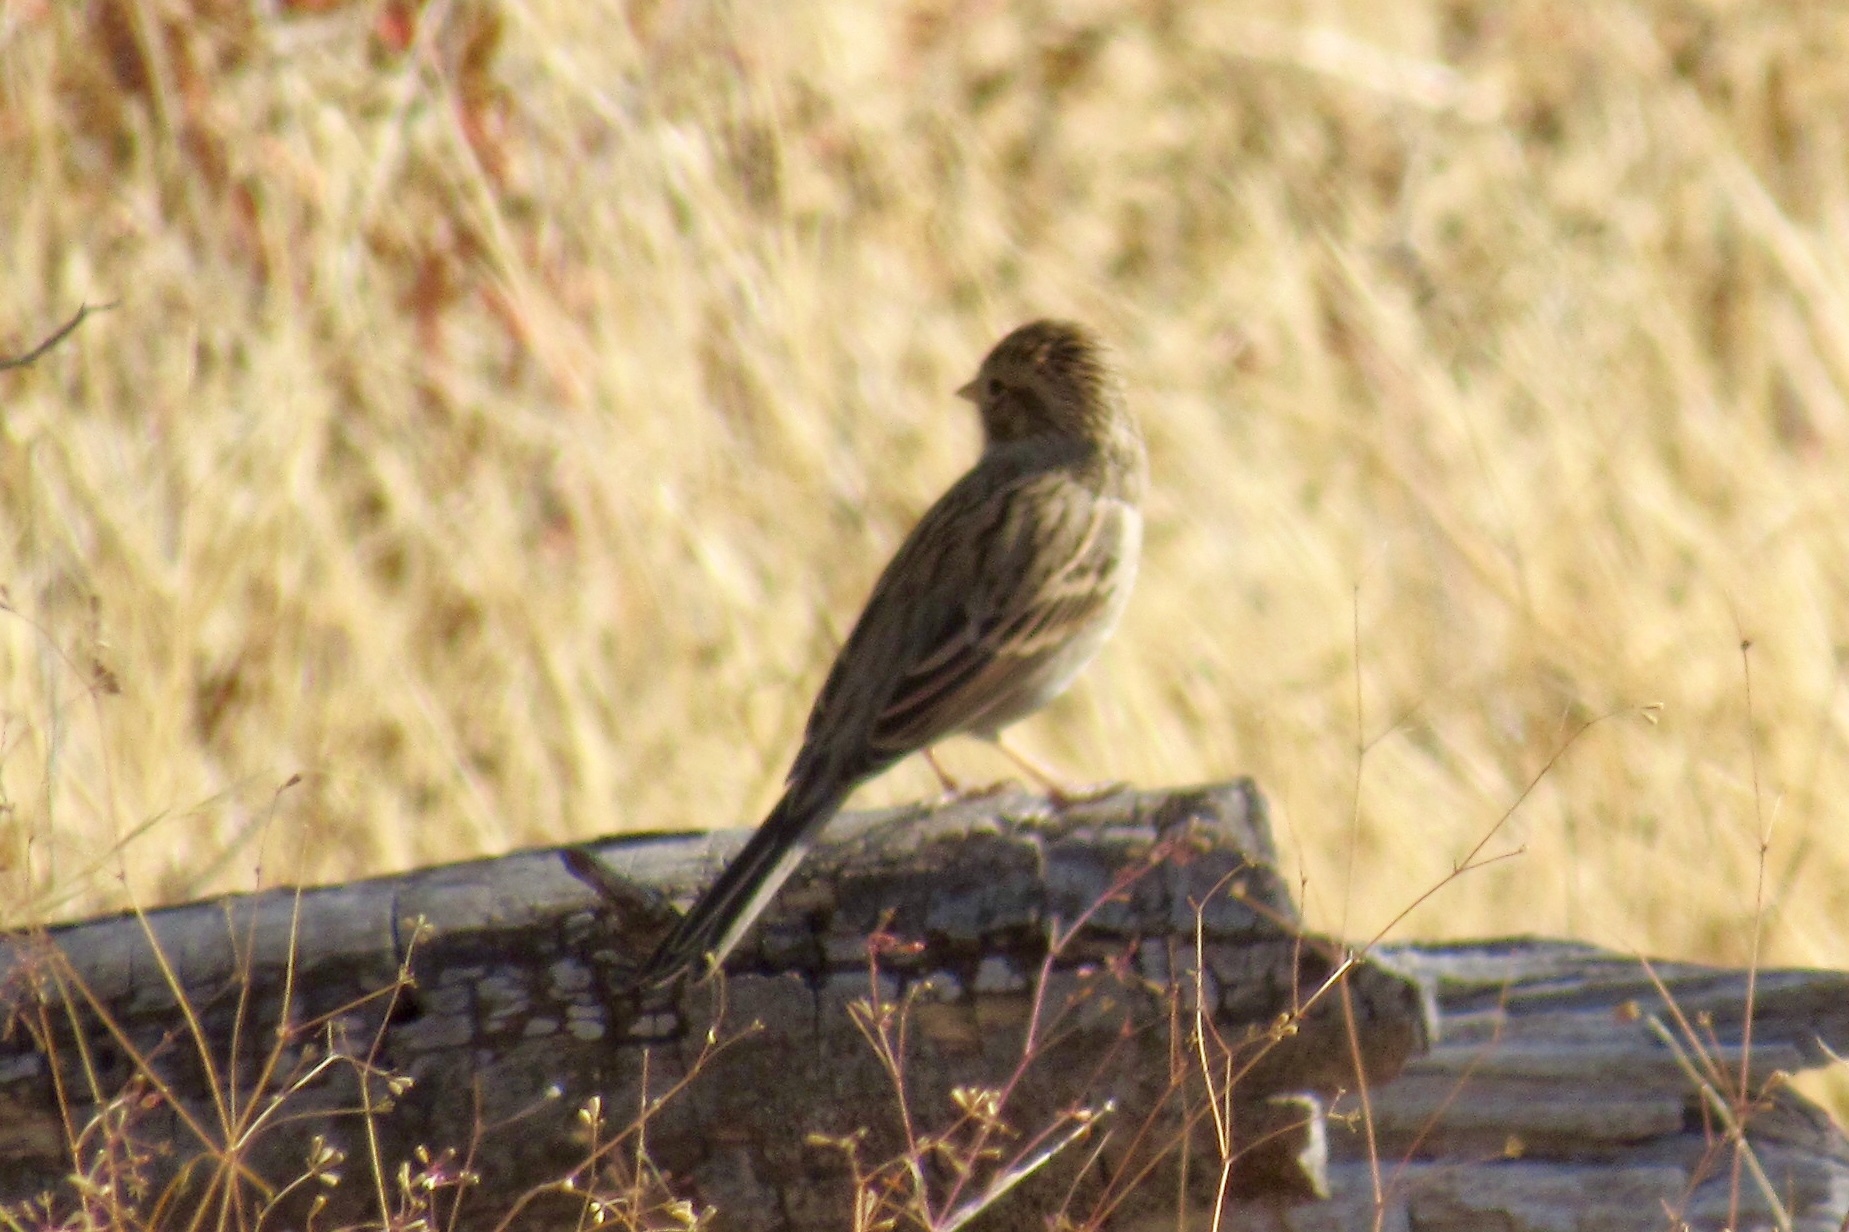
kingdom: Animalia
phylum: Chordata
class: Aves
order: Passeriformes
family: Passerellidae
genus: Spizella
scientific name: Spizella breweri
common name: Brewer's sparrow
